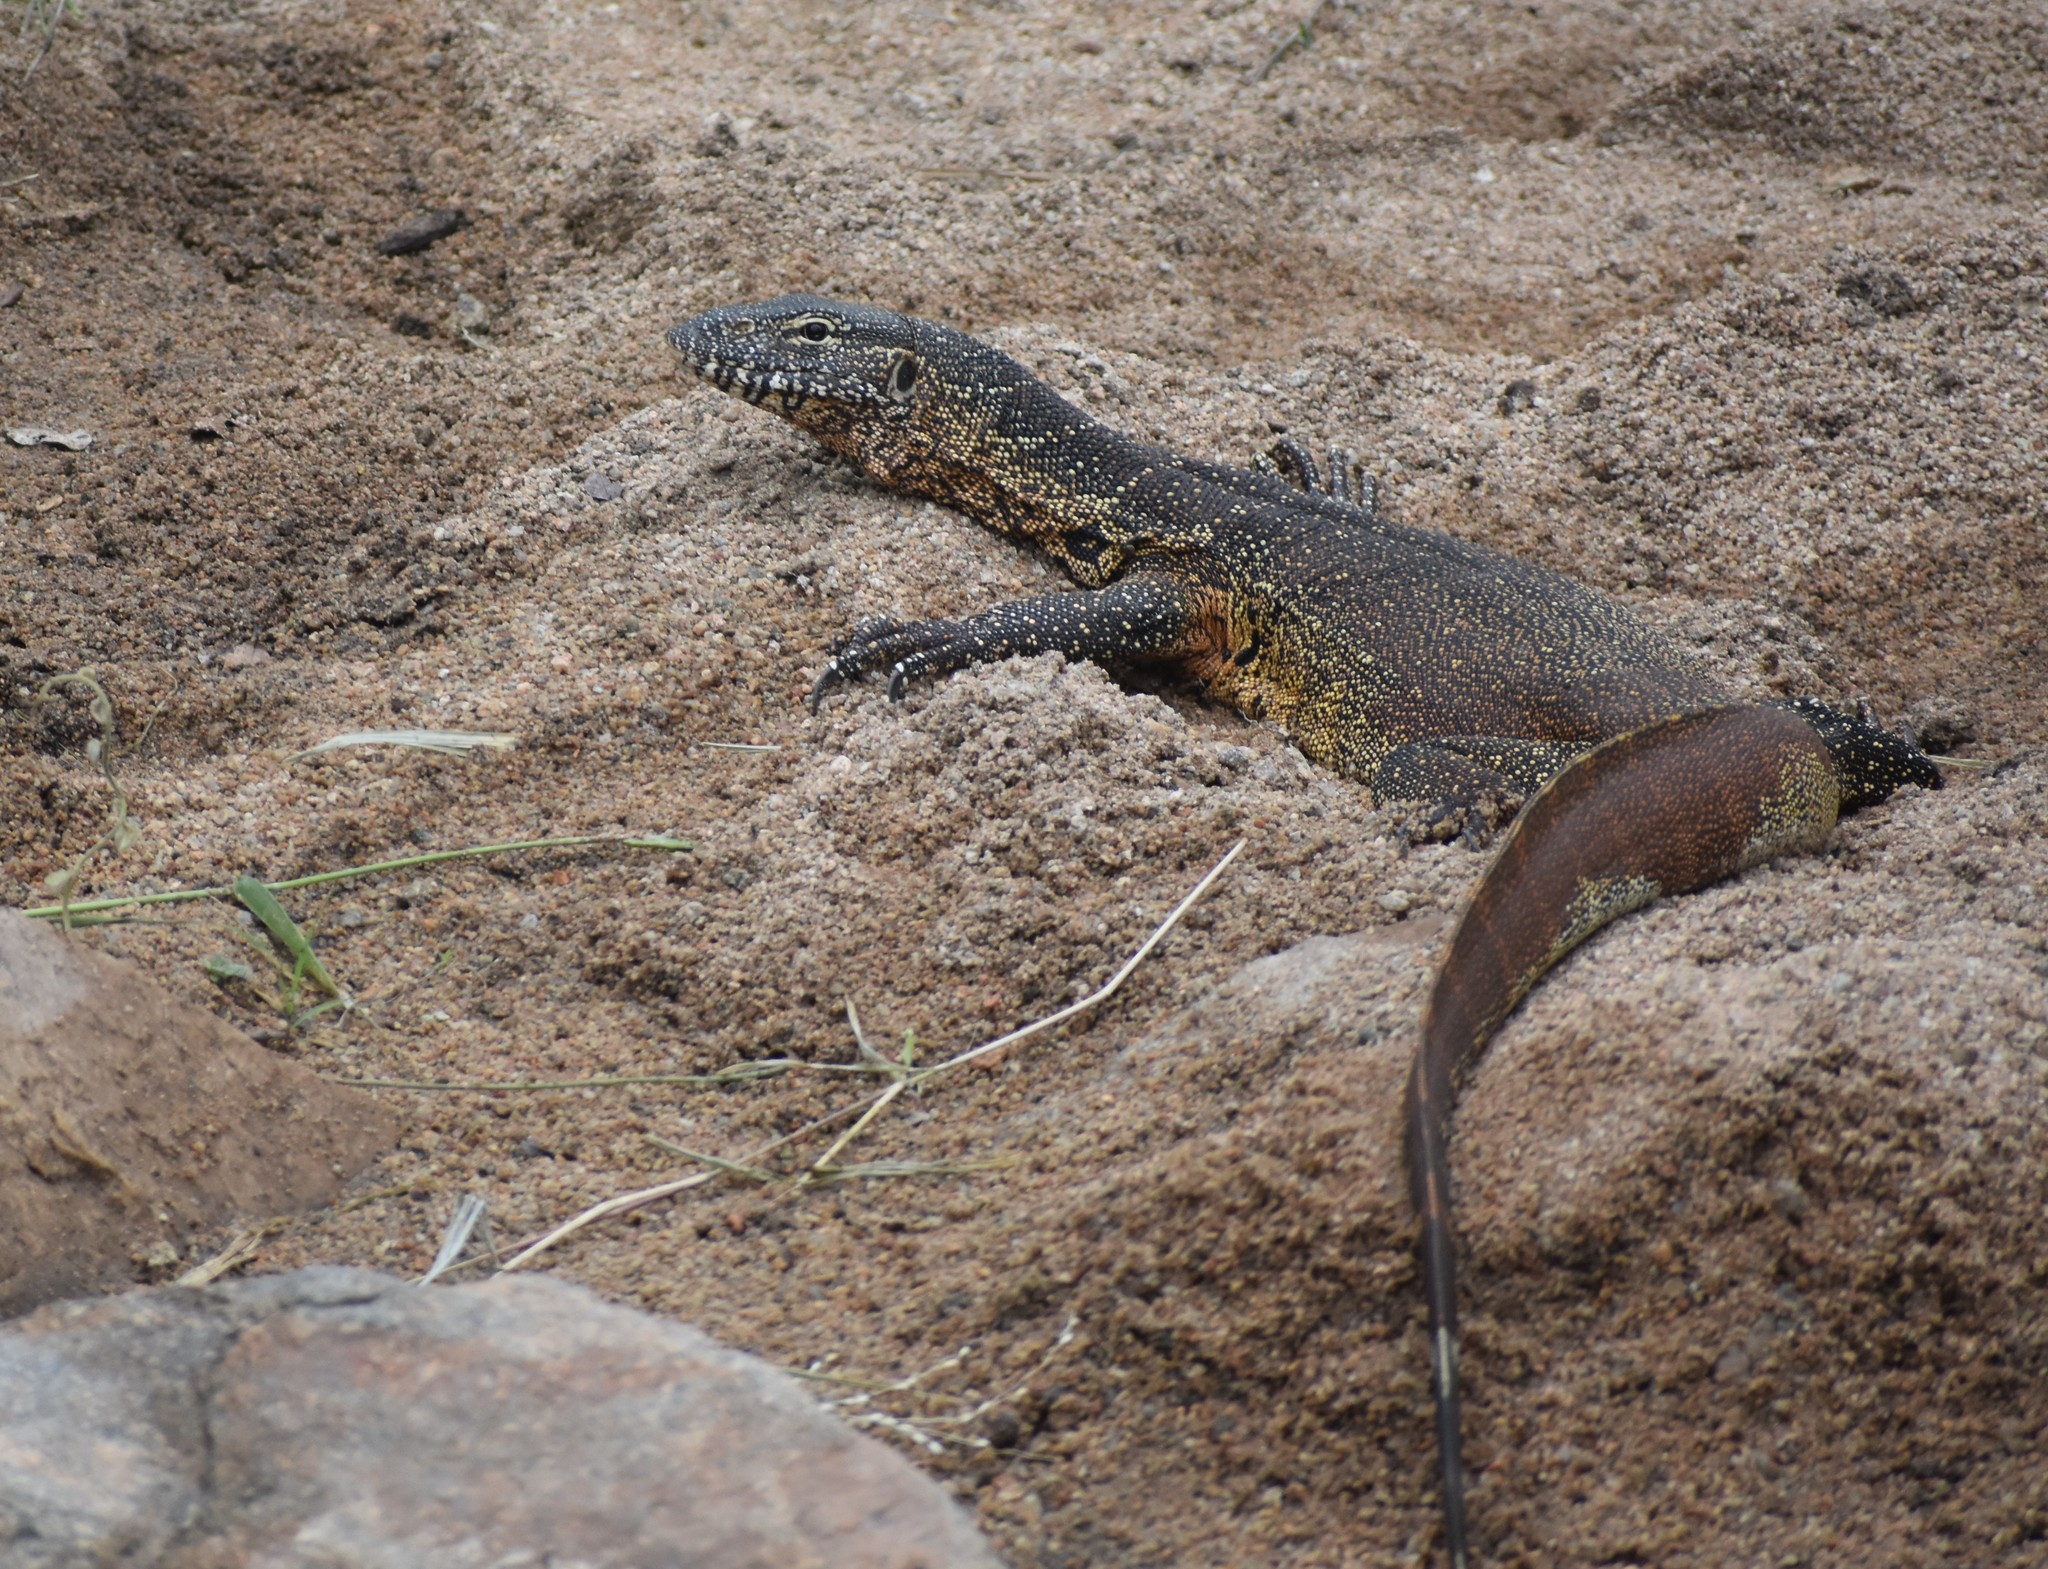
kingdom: Animalia
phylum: Chordata
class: Squamata
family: Varanidae
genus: Varanus
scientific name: Varanus niloticus
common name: Nile monitor
